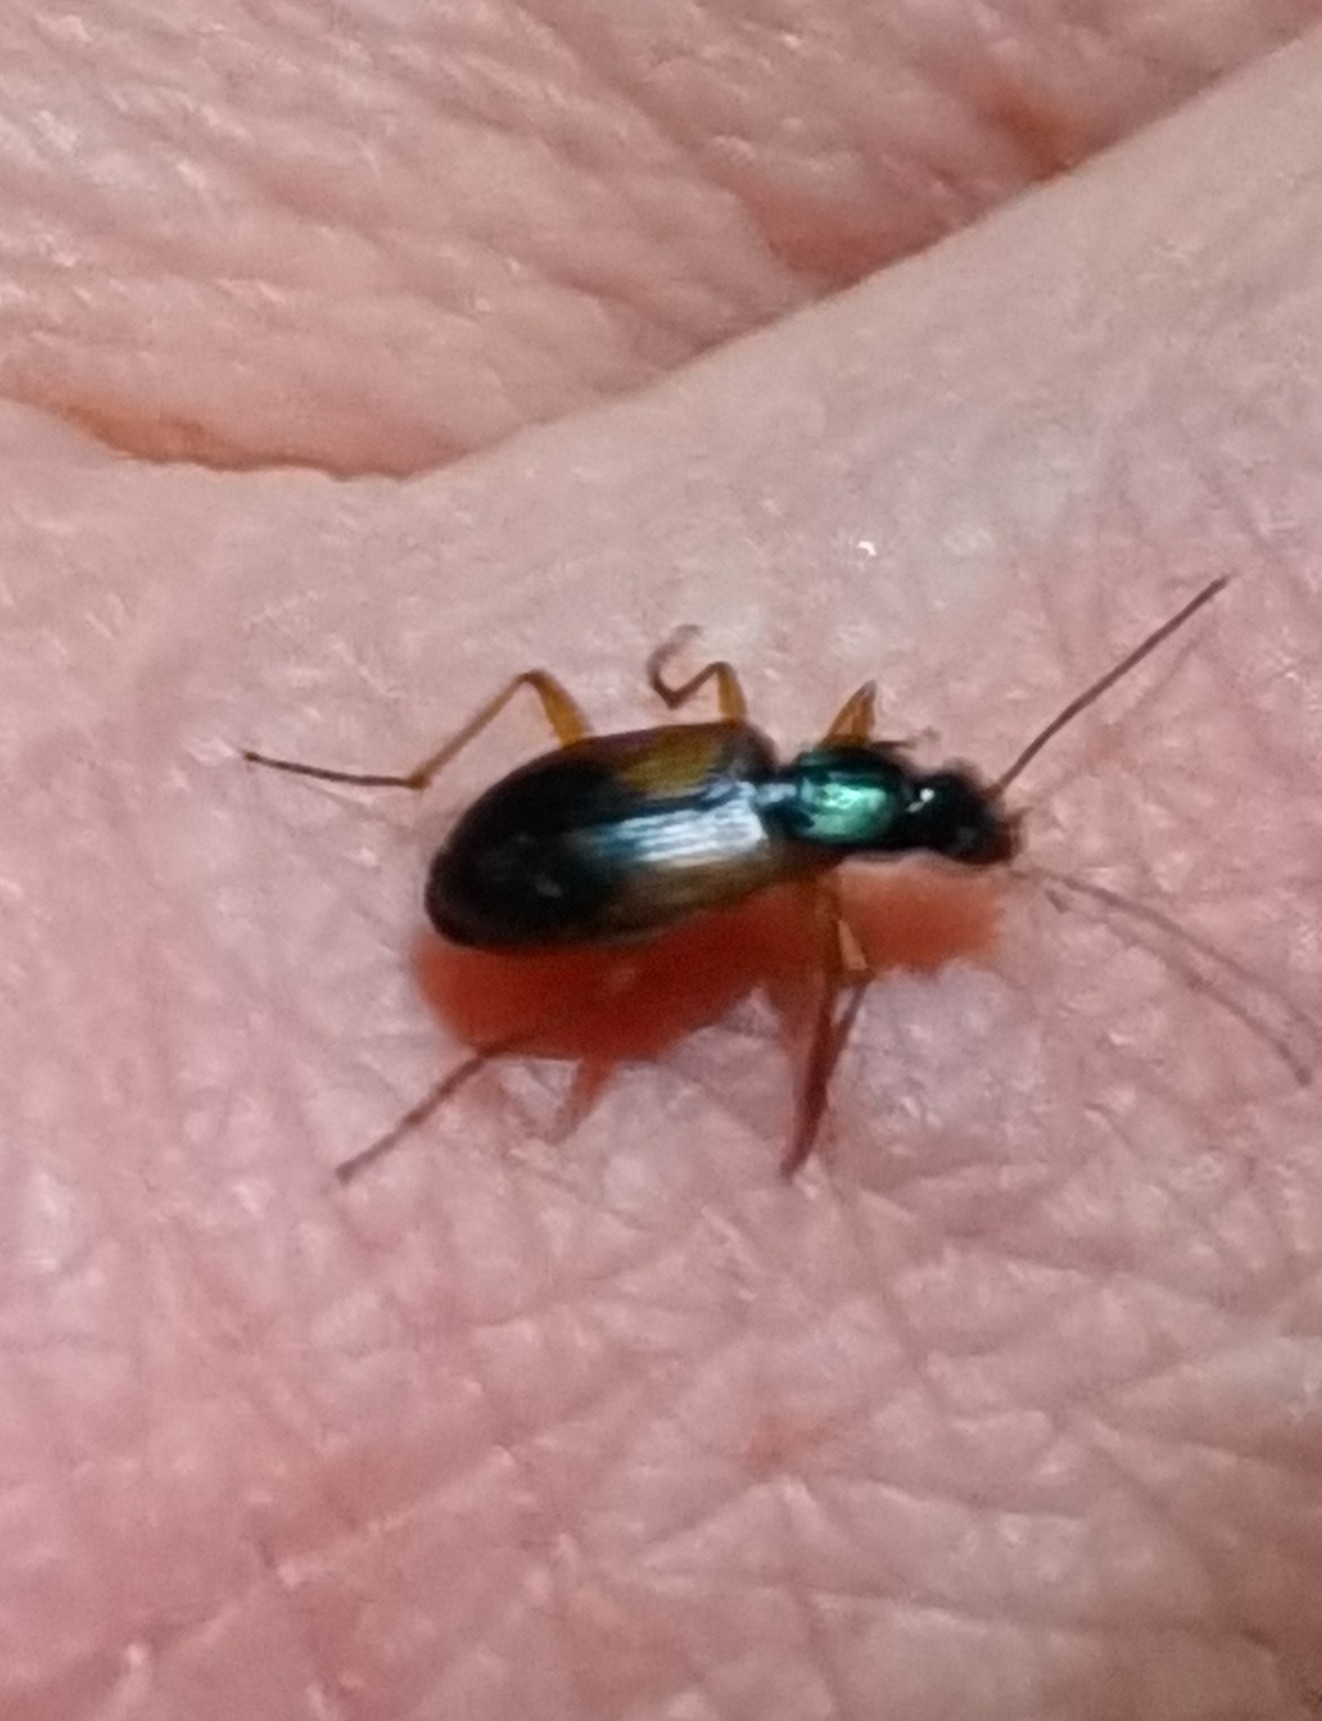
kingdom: Animalia
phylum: Arthropoda
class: Insecta
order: Coleoptera
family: Carabidae
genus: Anchomenus
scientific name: Anchomenus dorsalis
